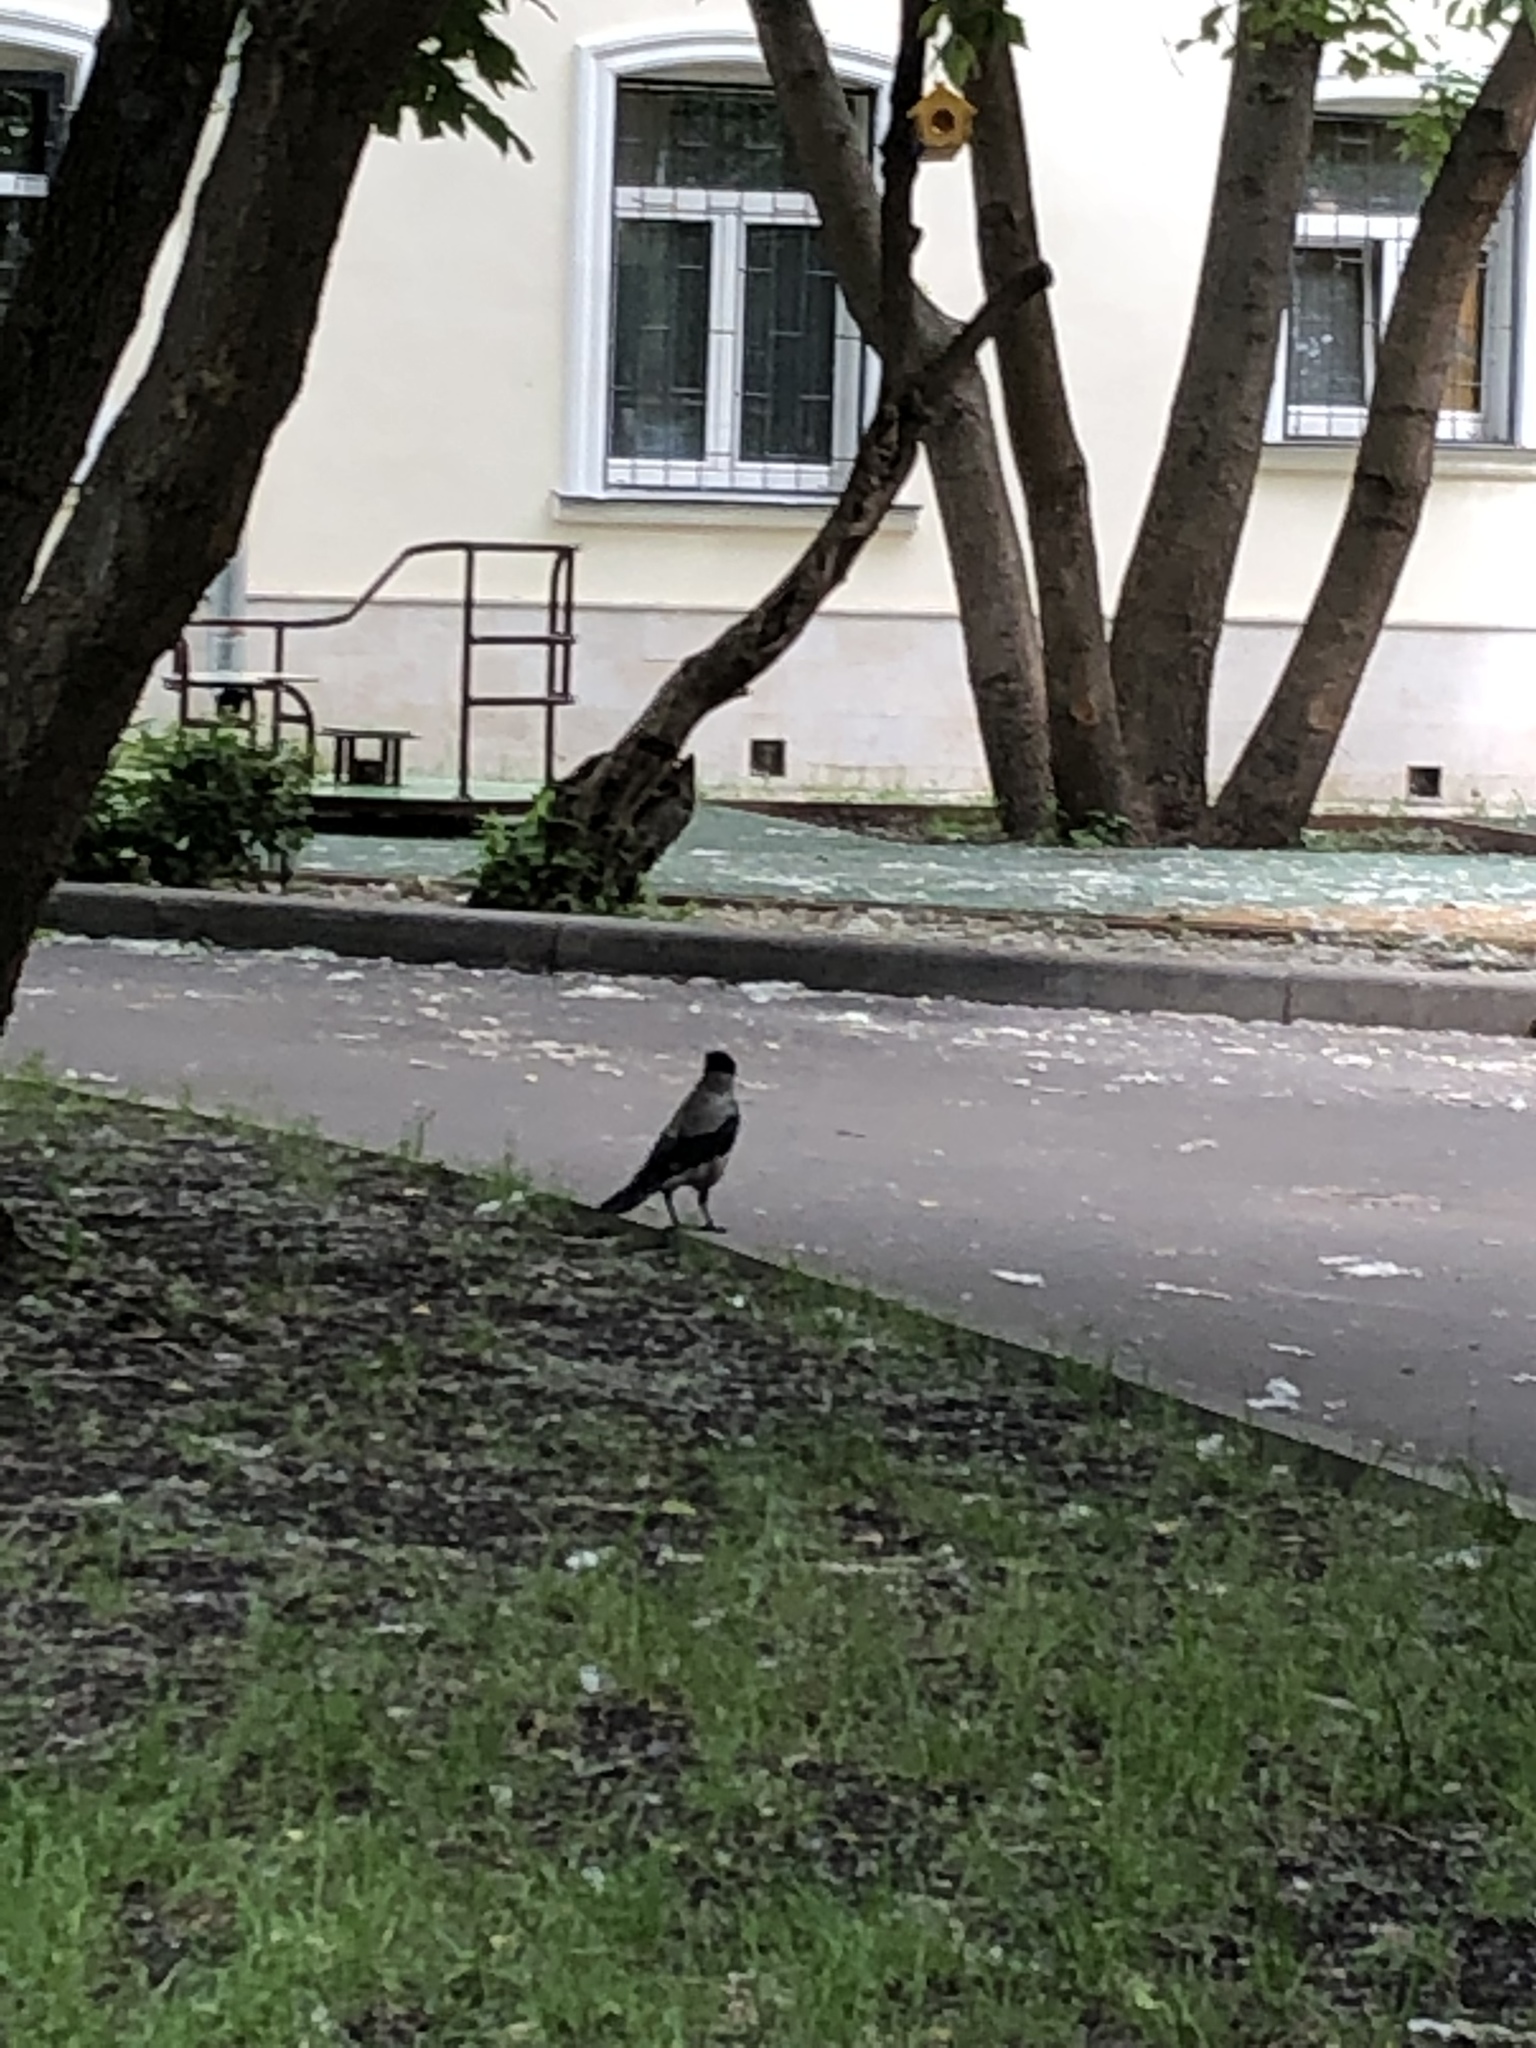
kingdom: Animalia
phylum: Chordata
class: Aves
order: Passeriformes
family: Corvidae
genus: Corvus
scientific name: Corvus cornix
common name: Hooded crow
